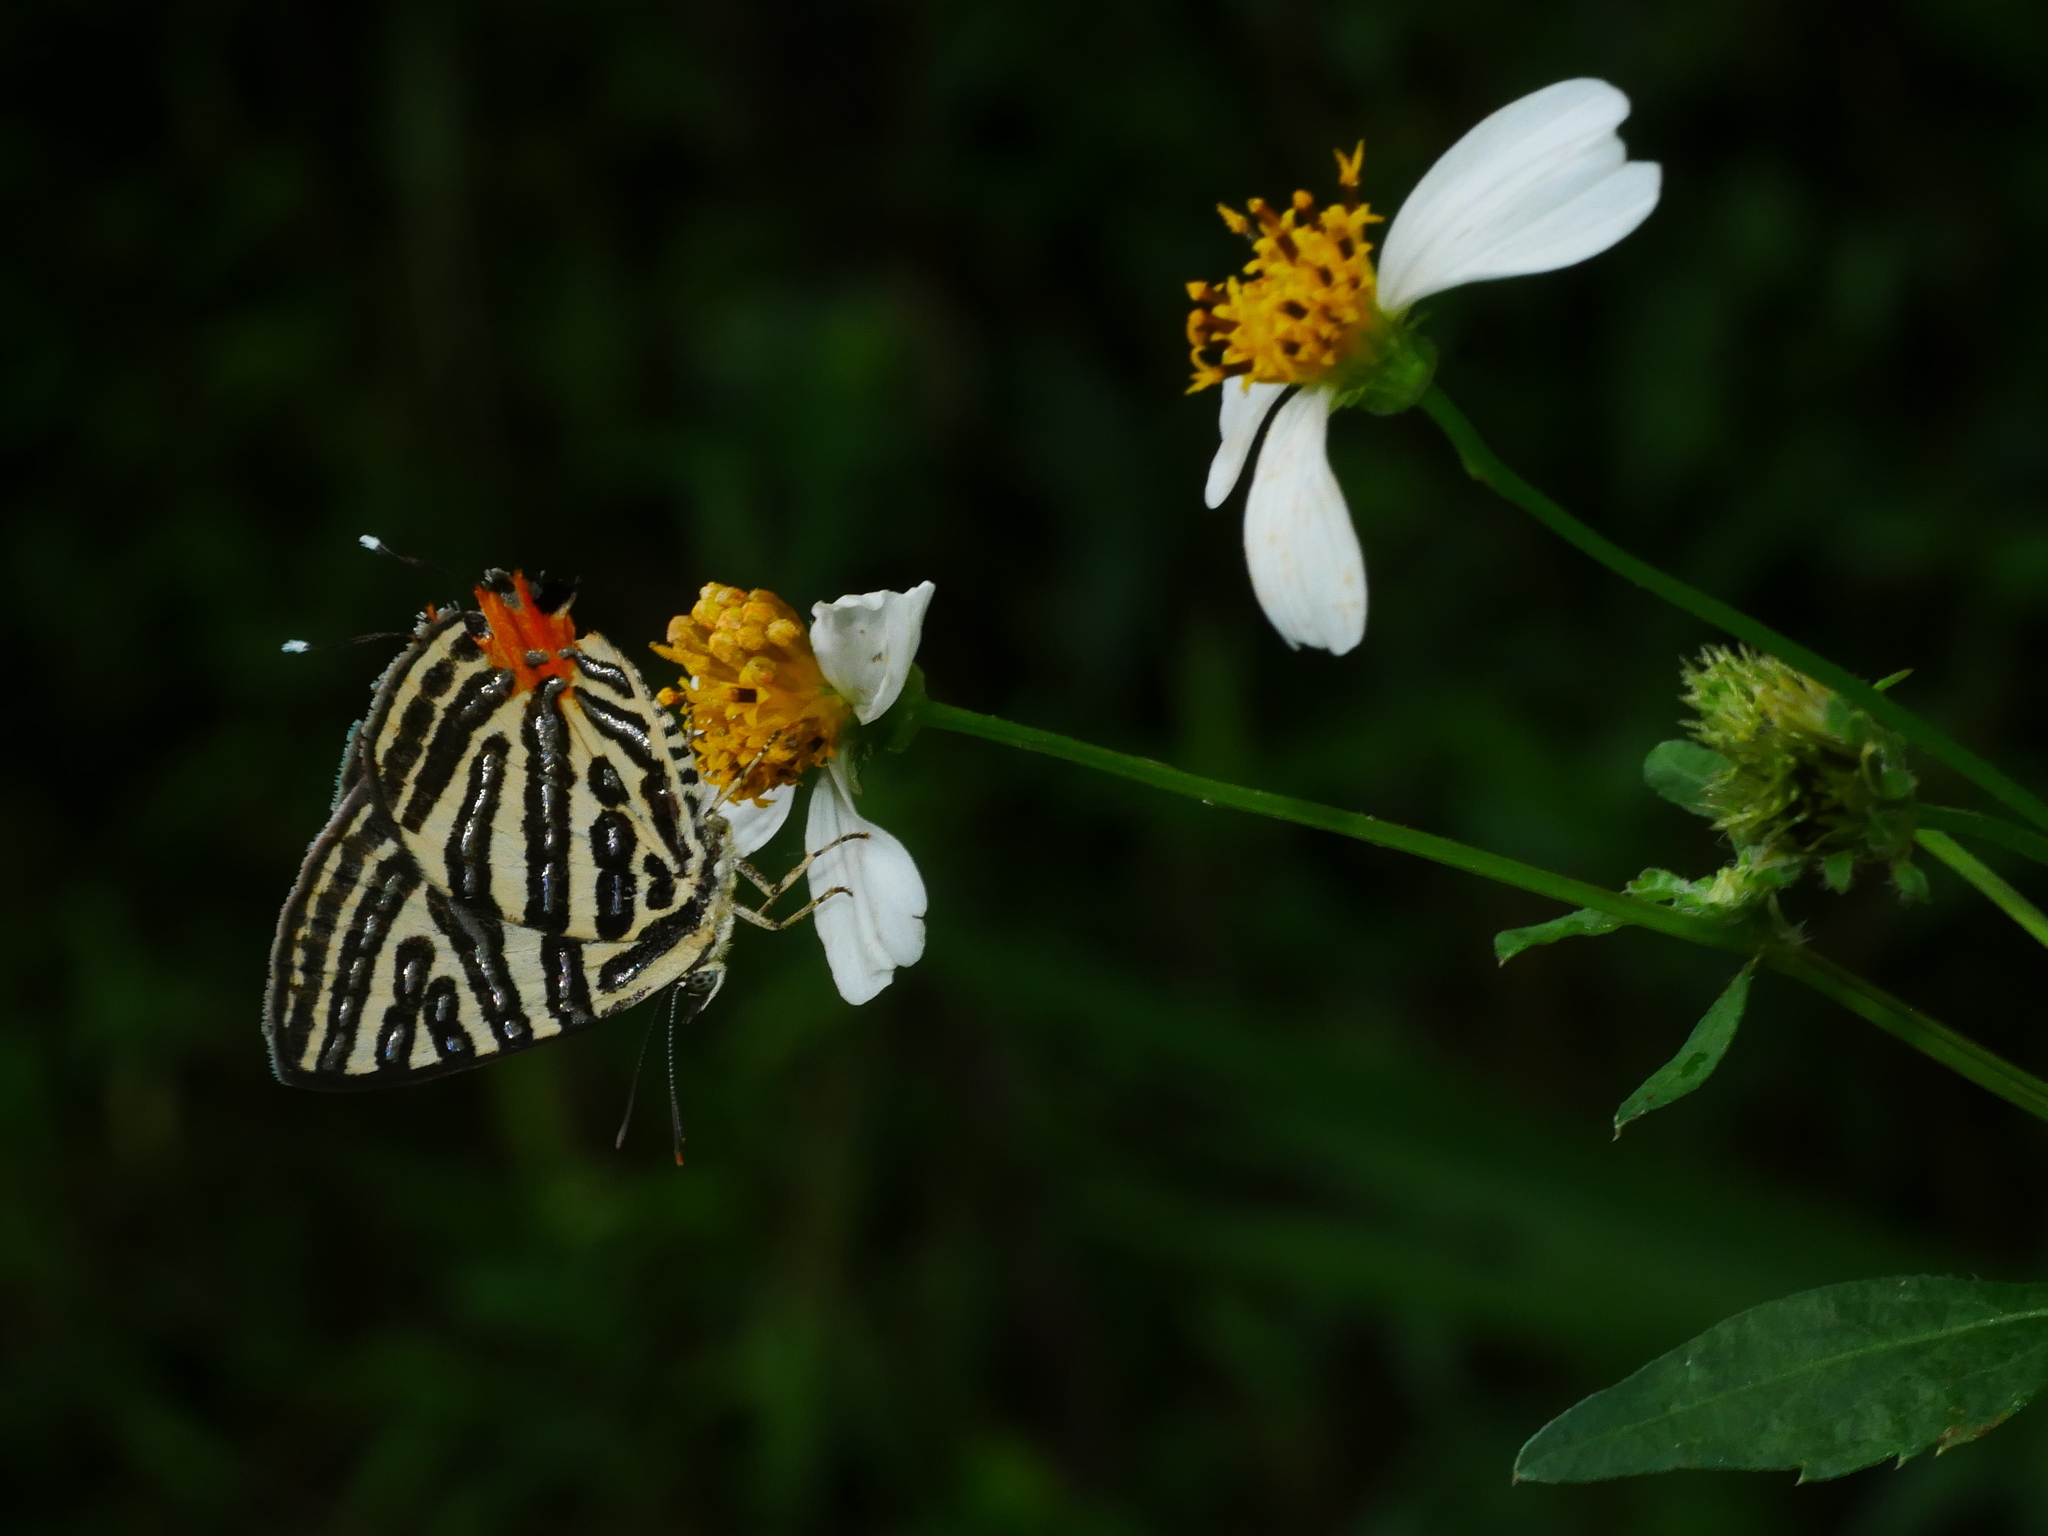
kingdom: Animalia
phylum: Arthropoda
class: Insecta
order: Lepidoptera
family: Lycaenidae
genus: Cigaritis
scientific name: Cigaritis syama
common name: Club silverline
